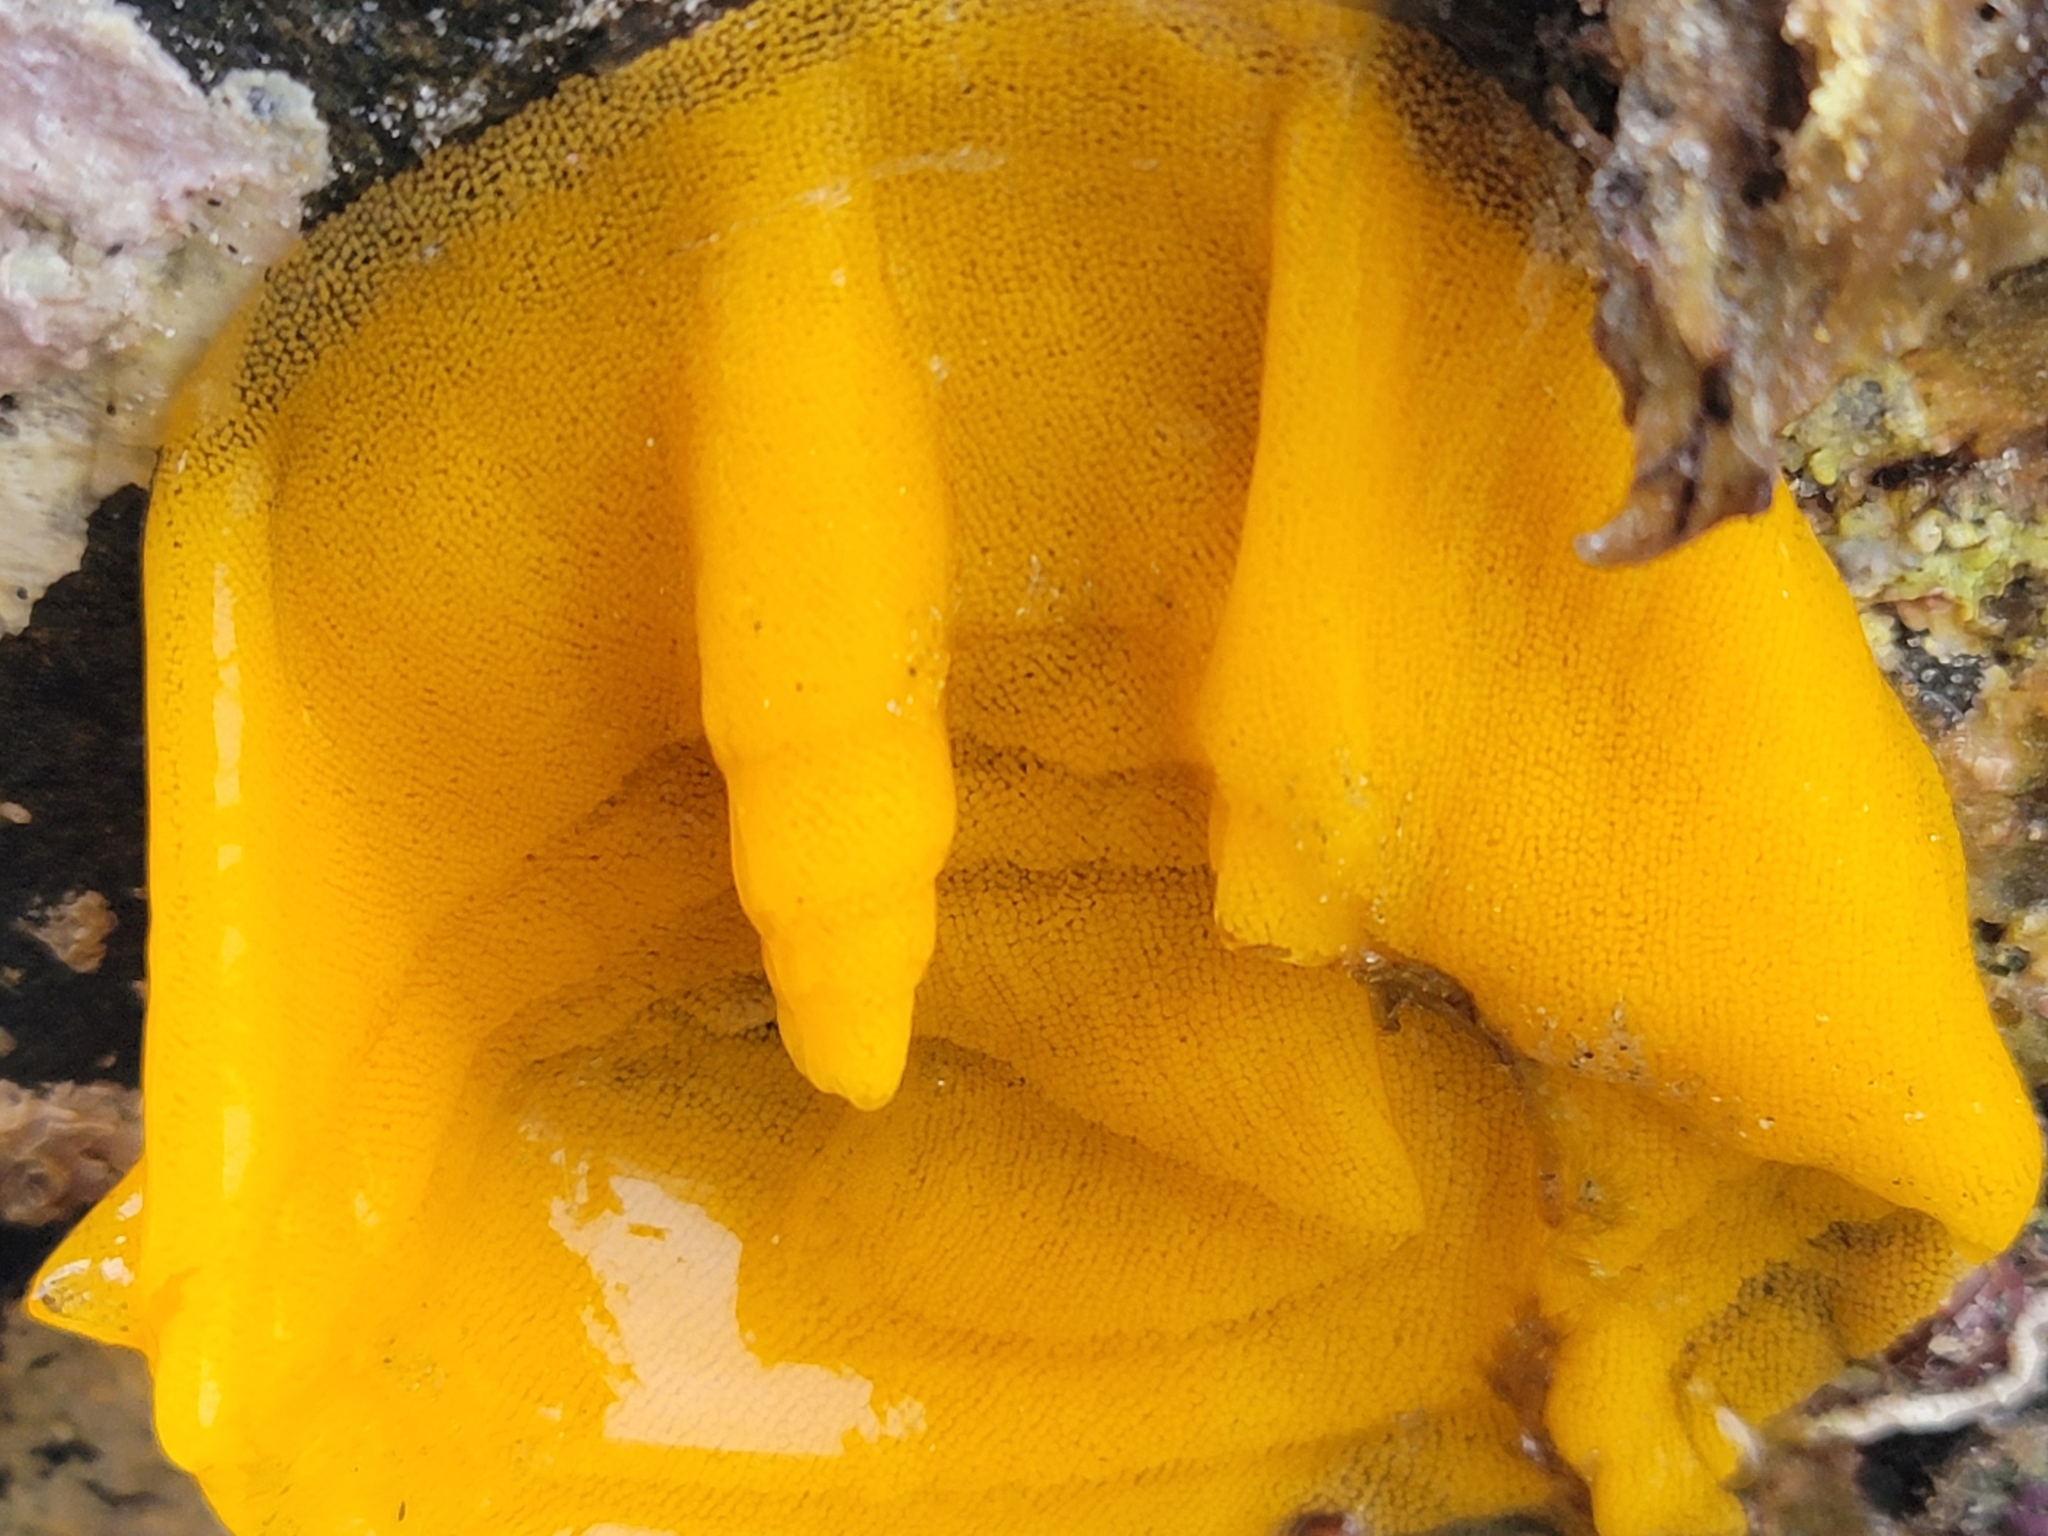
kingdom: Animalia
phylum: Mollusca
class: Gastropoda
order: Nudibranchia
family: Dorididae
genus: Doris
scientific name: Doris wellingtonensis
